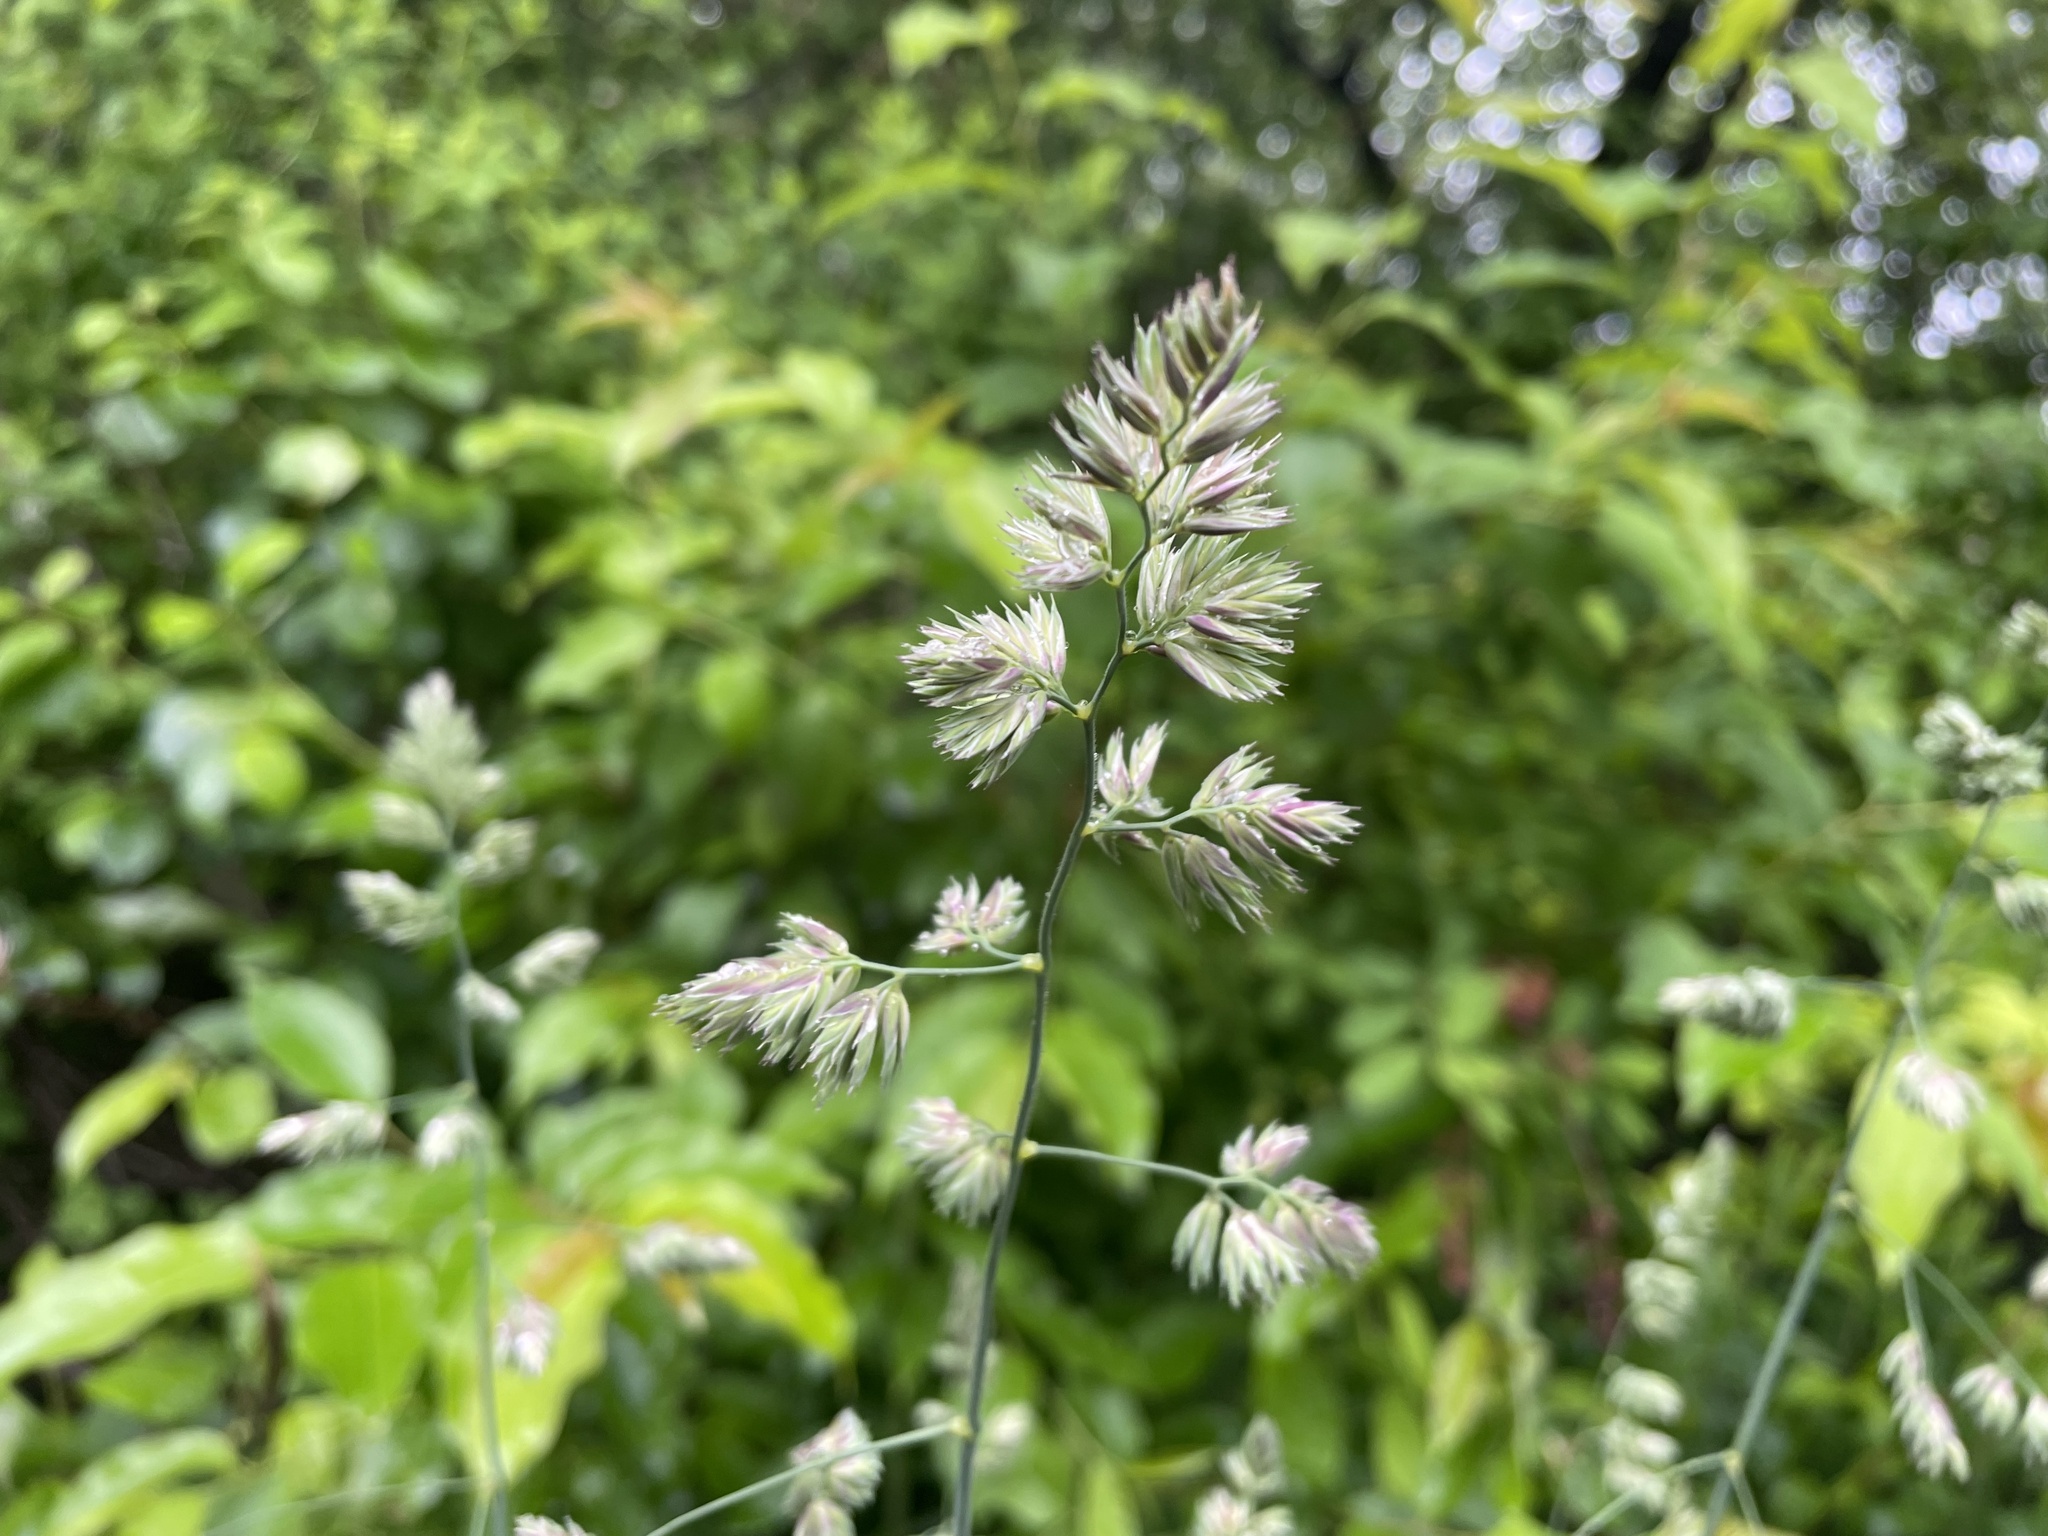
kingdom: Plantae
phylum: Tracheophyta
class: Liliopsida
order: Poales
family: Poaceae
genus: Dactylis
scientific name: Dactylis glomerata
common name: Orchardgrass
